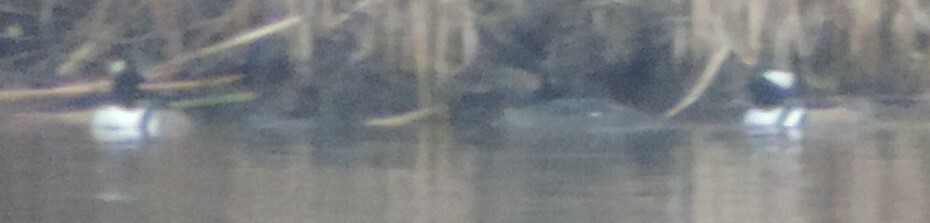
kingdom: Animalia
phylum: Chordata
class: Aves
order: Anseriformes
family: Anatidae
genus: Lophodytes
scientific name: Lophodytes cucullatus
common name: Hooded merganser
